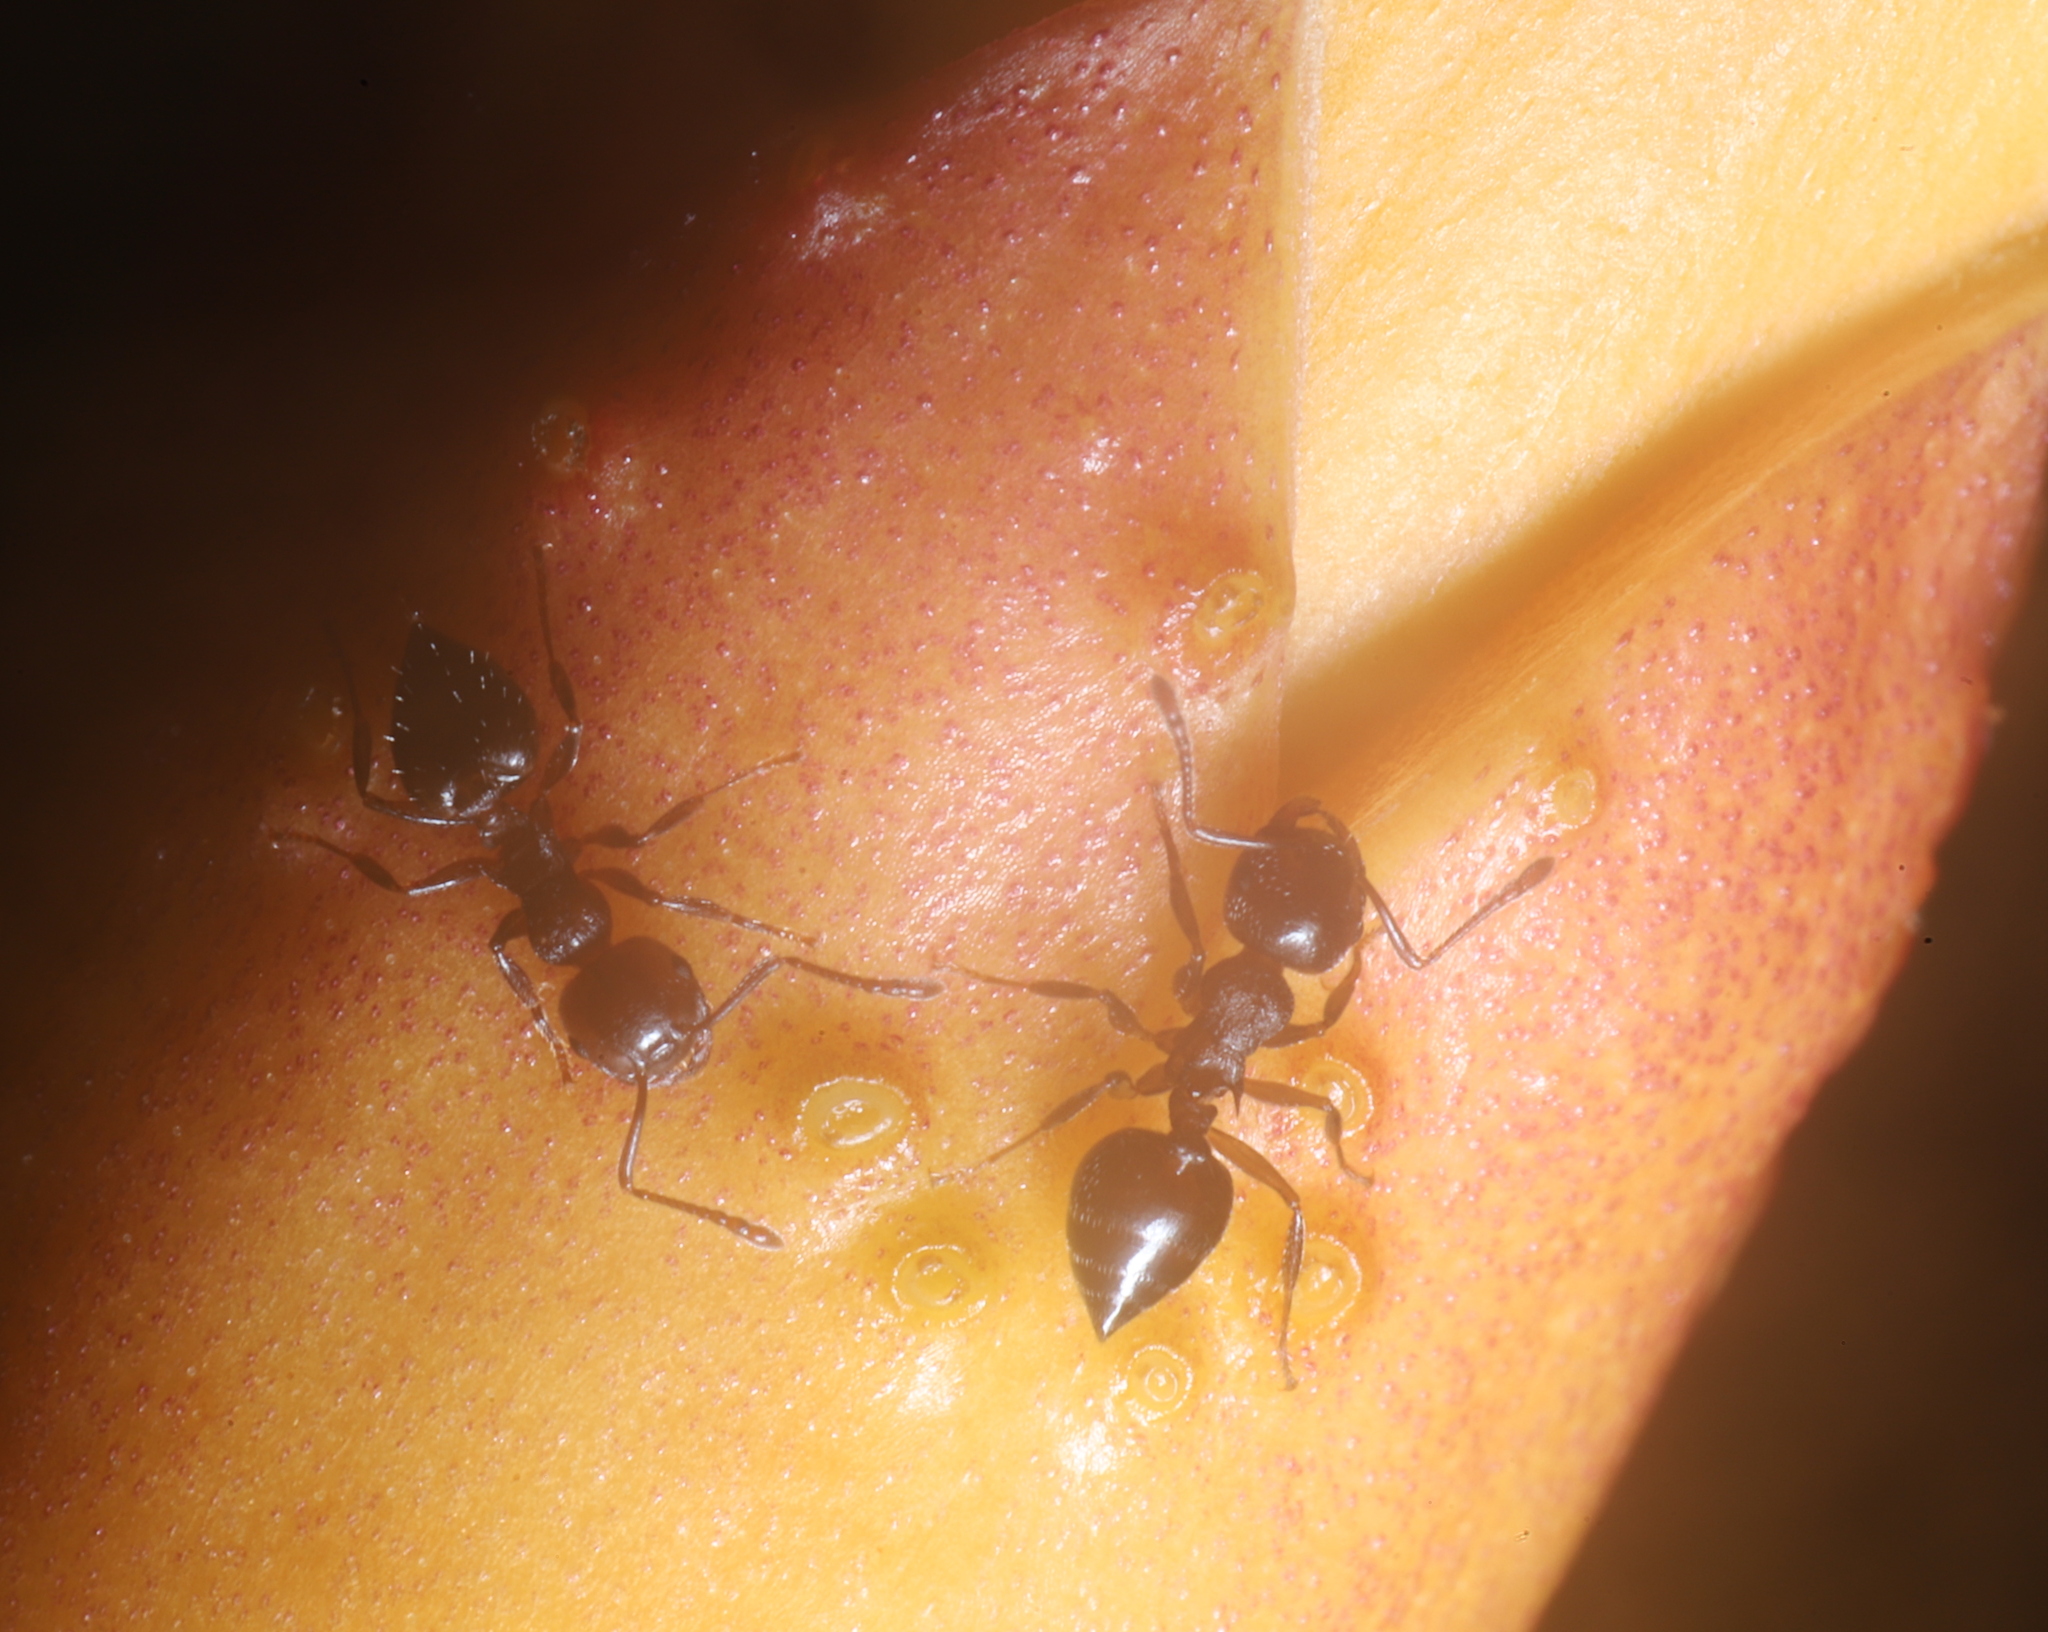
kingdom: Animalia
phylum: Arthropoda
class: Insecta
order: Hymenoptera
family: Formicidae
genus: Crematogaster
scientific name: Crematogaster
